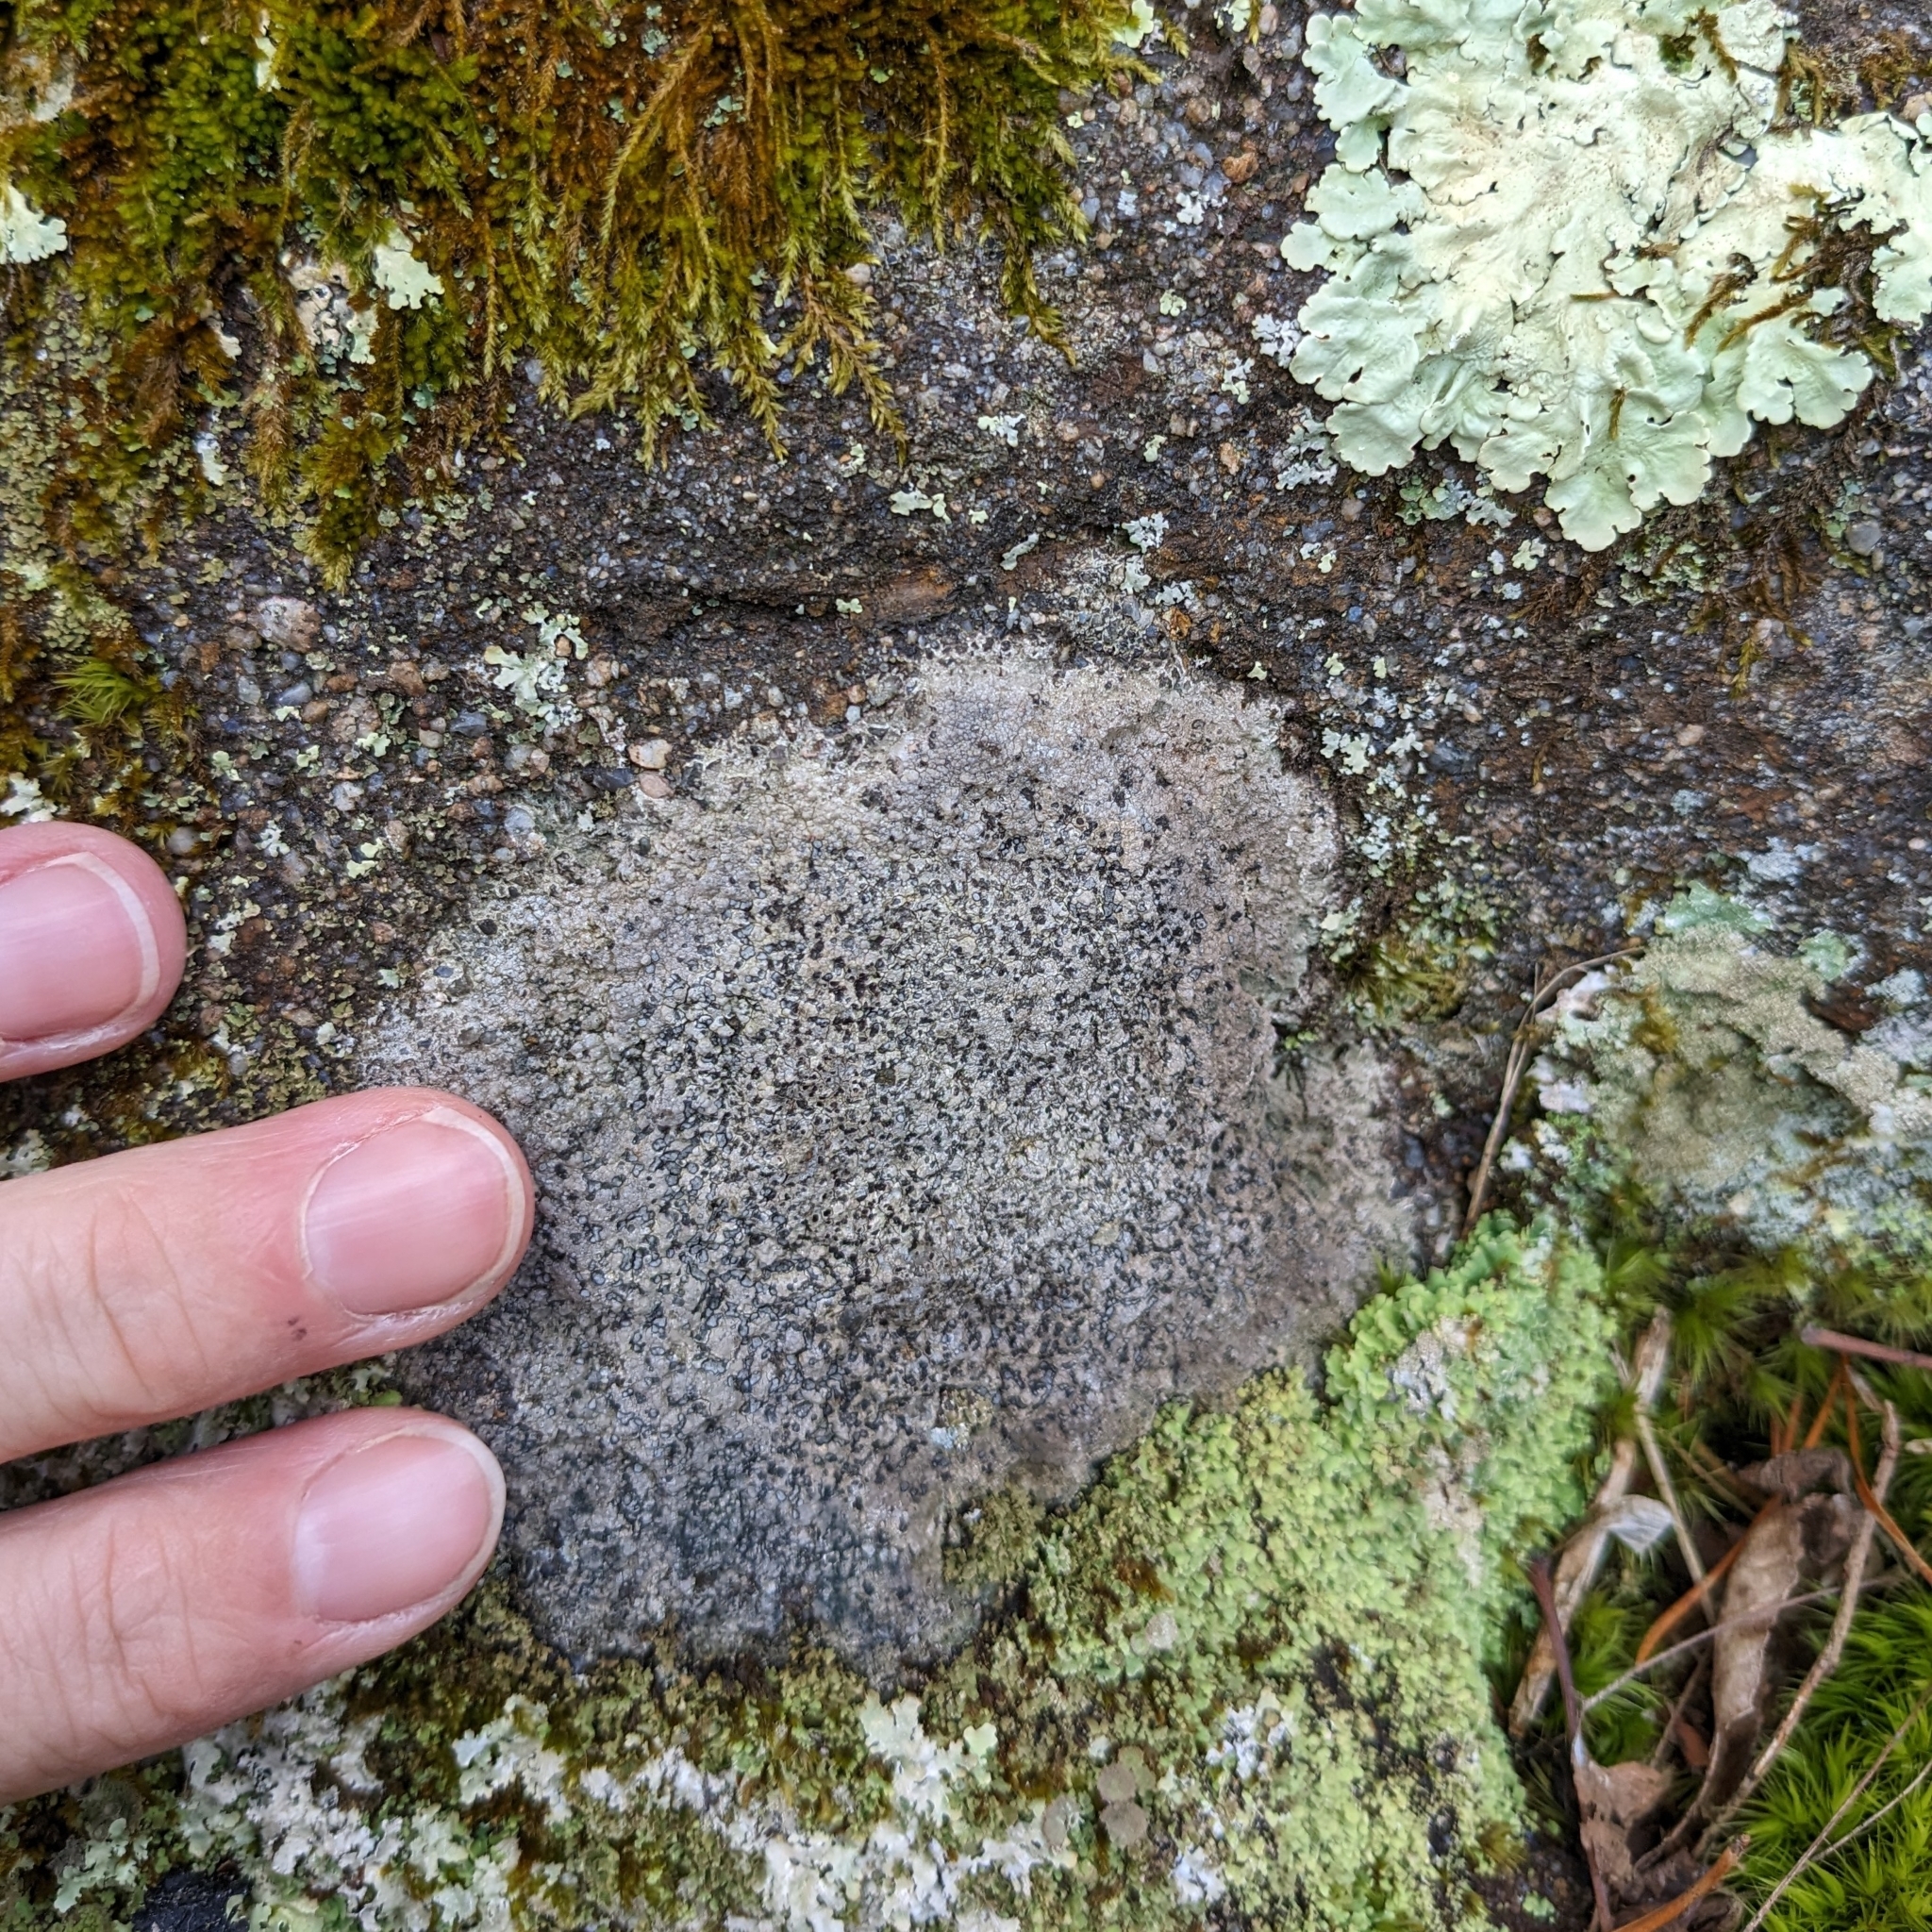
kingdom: Fungi
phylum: Ascomycota
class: Lecanoromycetes
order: Lecideales
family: Lecideaceae
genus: Porpidia
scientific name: Porpidia albocaerulescens
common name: Smokey-eyed boulder lichen
